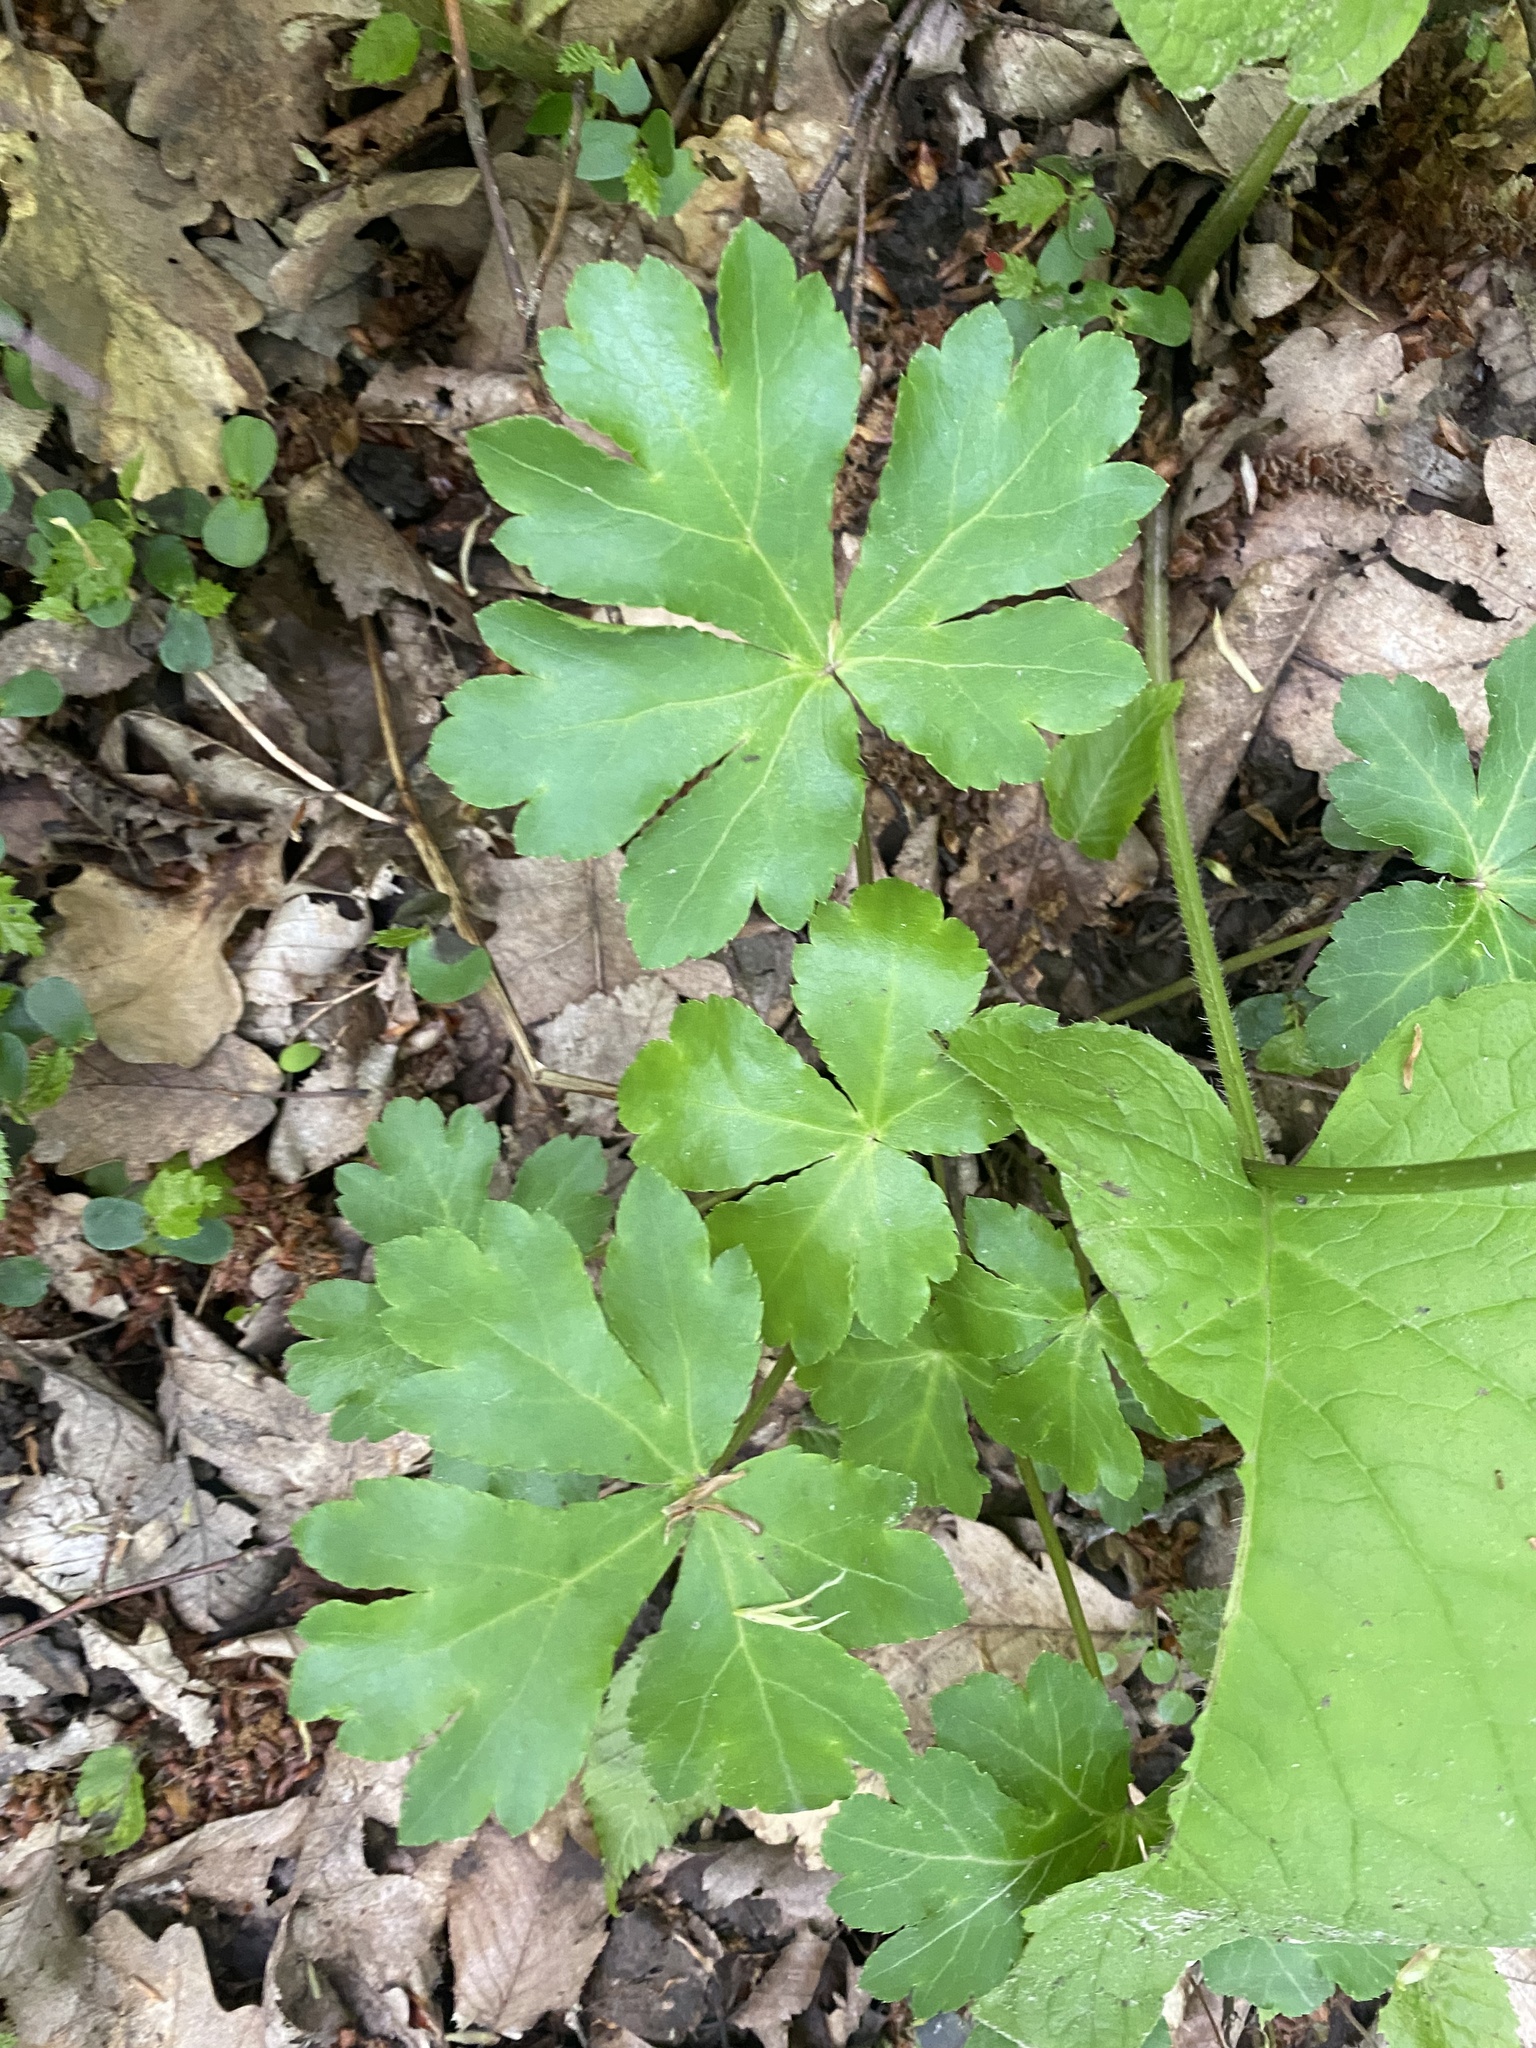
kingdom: Plantae
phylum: Tracheophyta
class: Magnoliopsida
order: Apiales
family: Apiaceae
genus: Sanicula
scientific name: Sanicula europaea
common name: Sanicle
